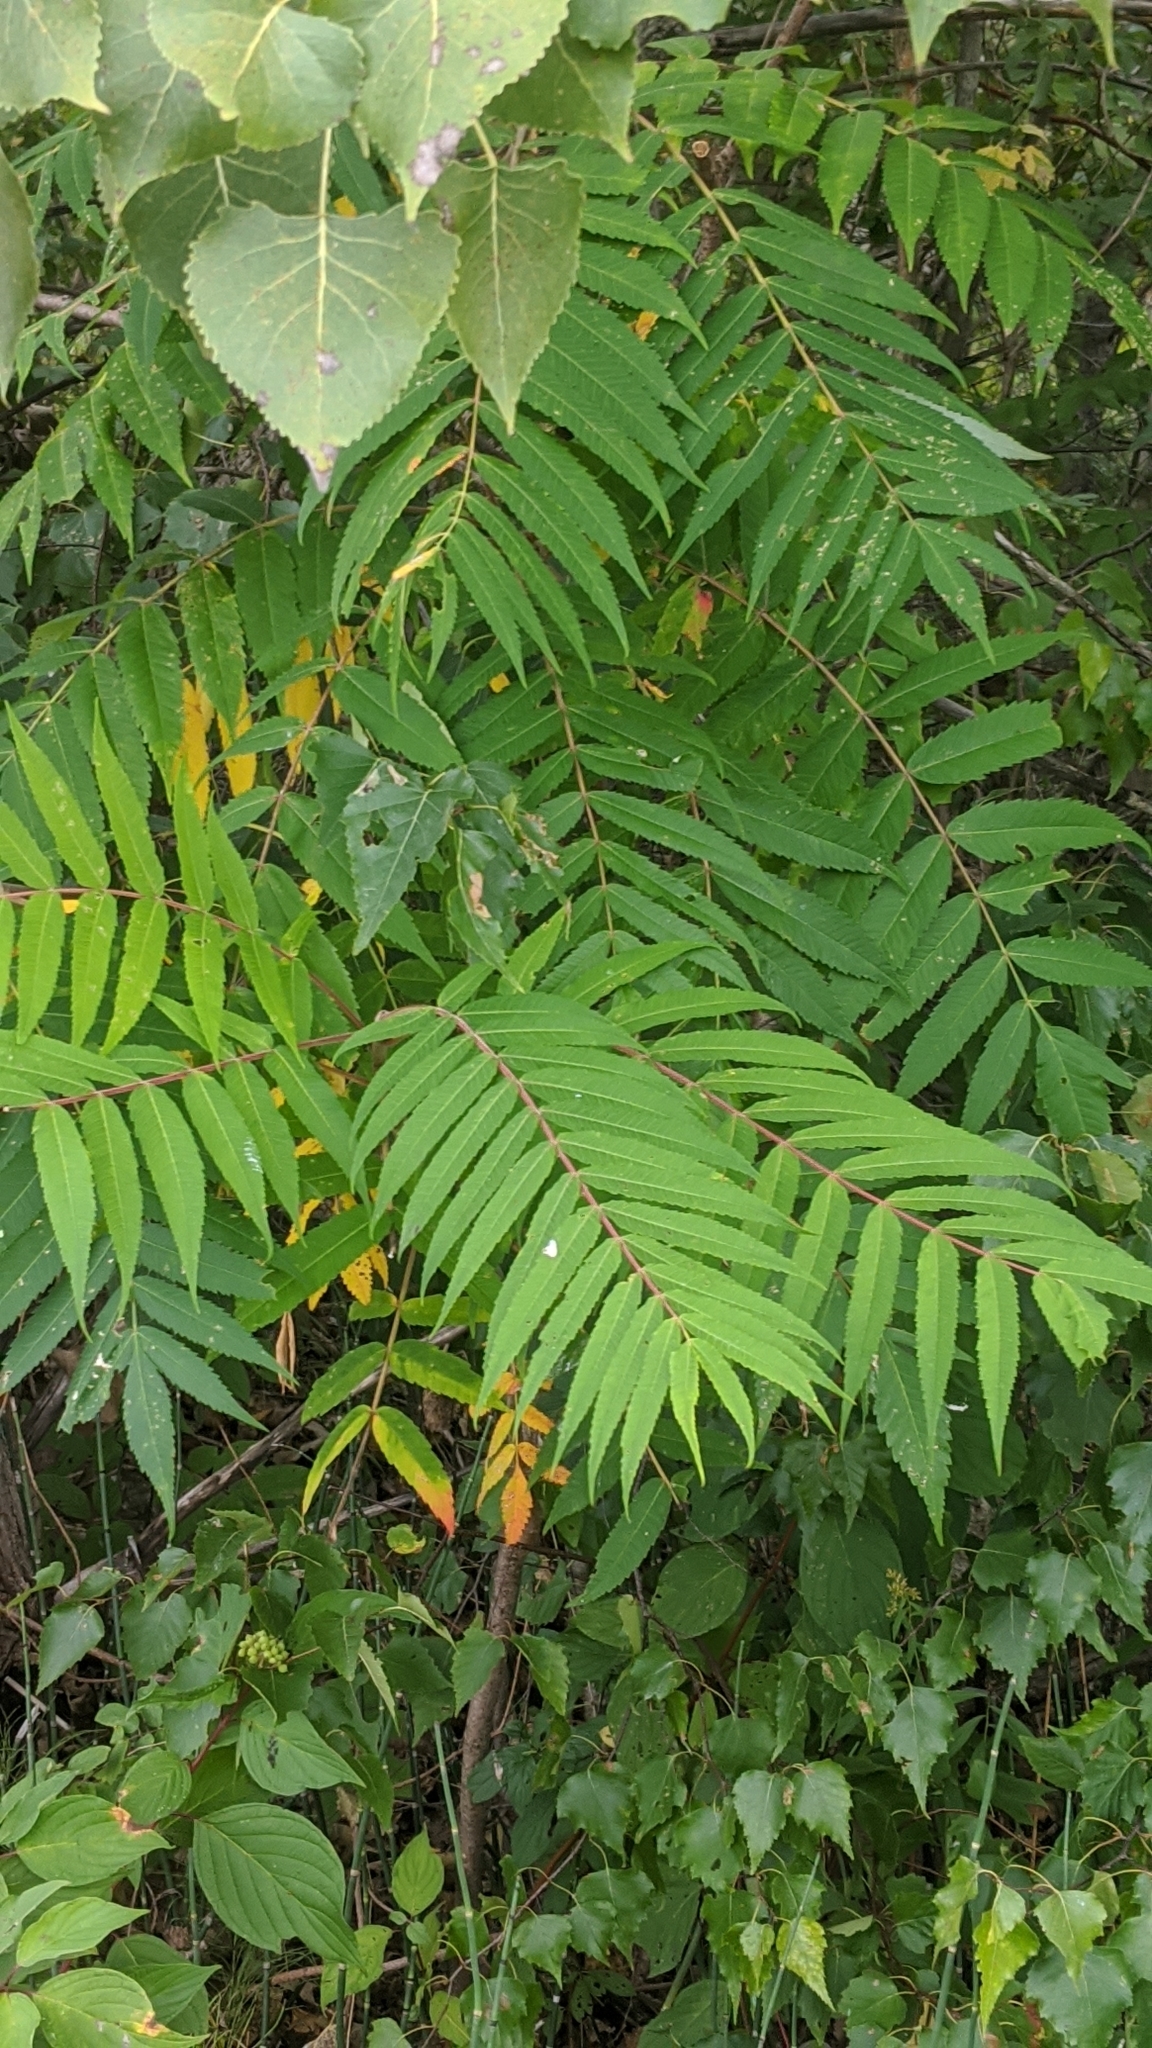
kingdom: Plantae
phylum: Tracheophyta
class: Magnoliopsida
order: Sapindales
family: Anacardiaceae
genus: Rhus
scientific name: Rhus typhina
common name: Staghorn sumac
